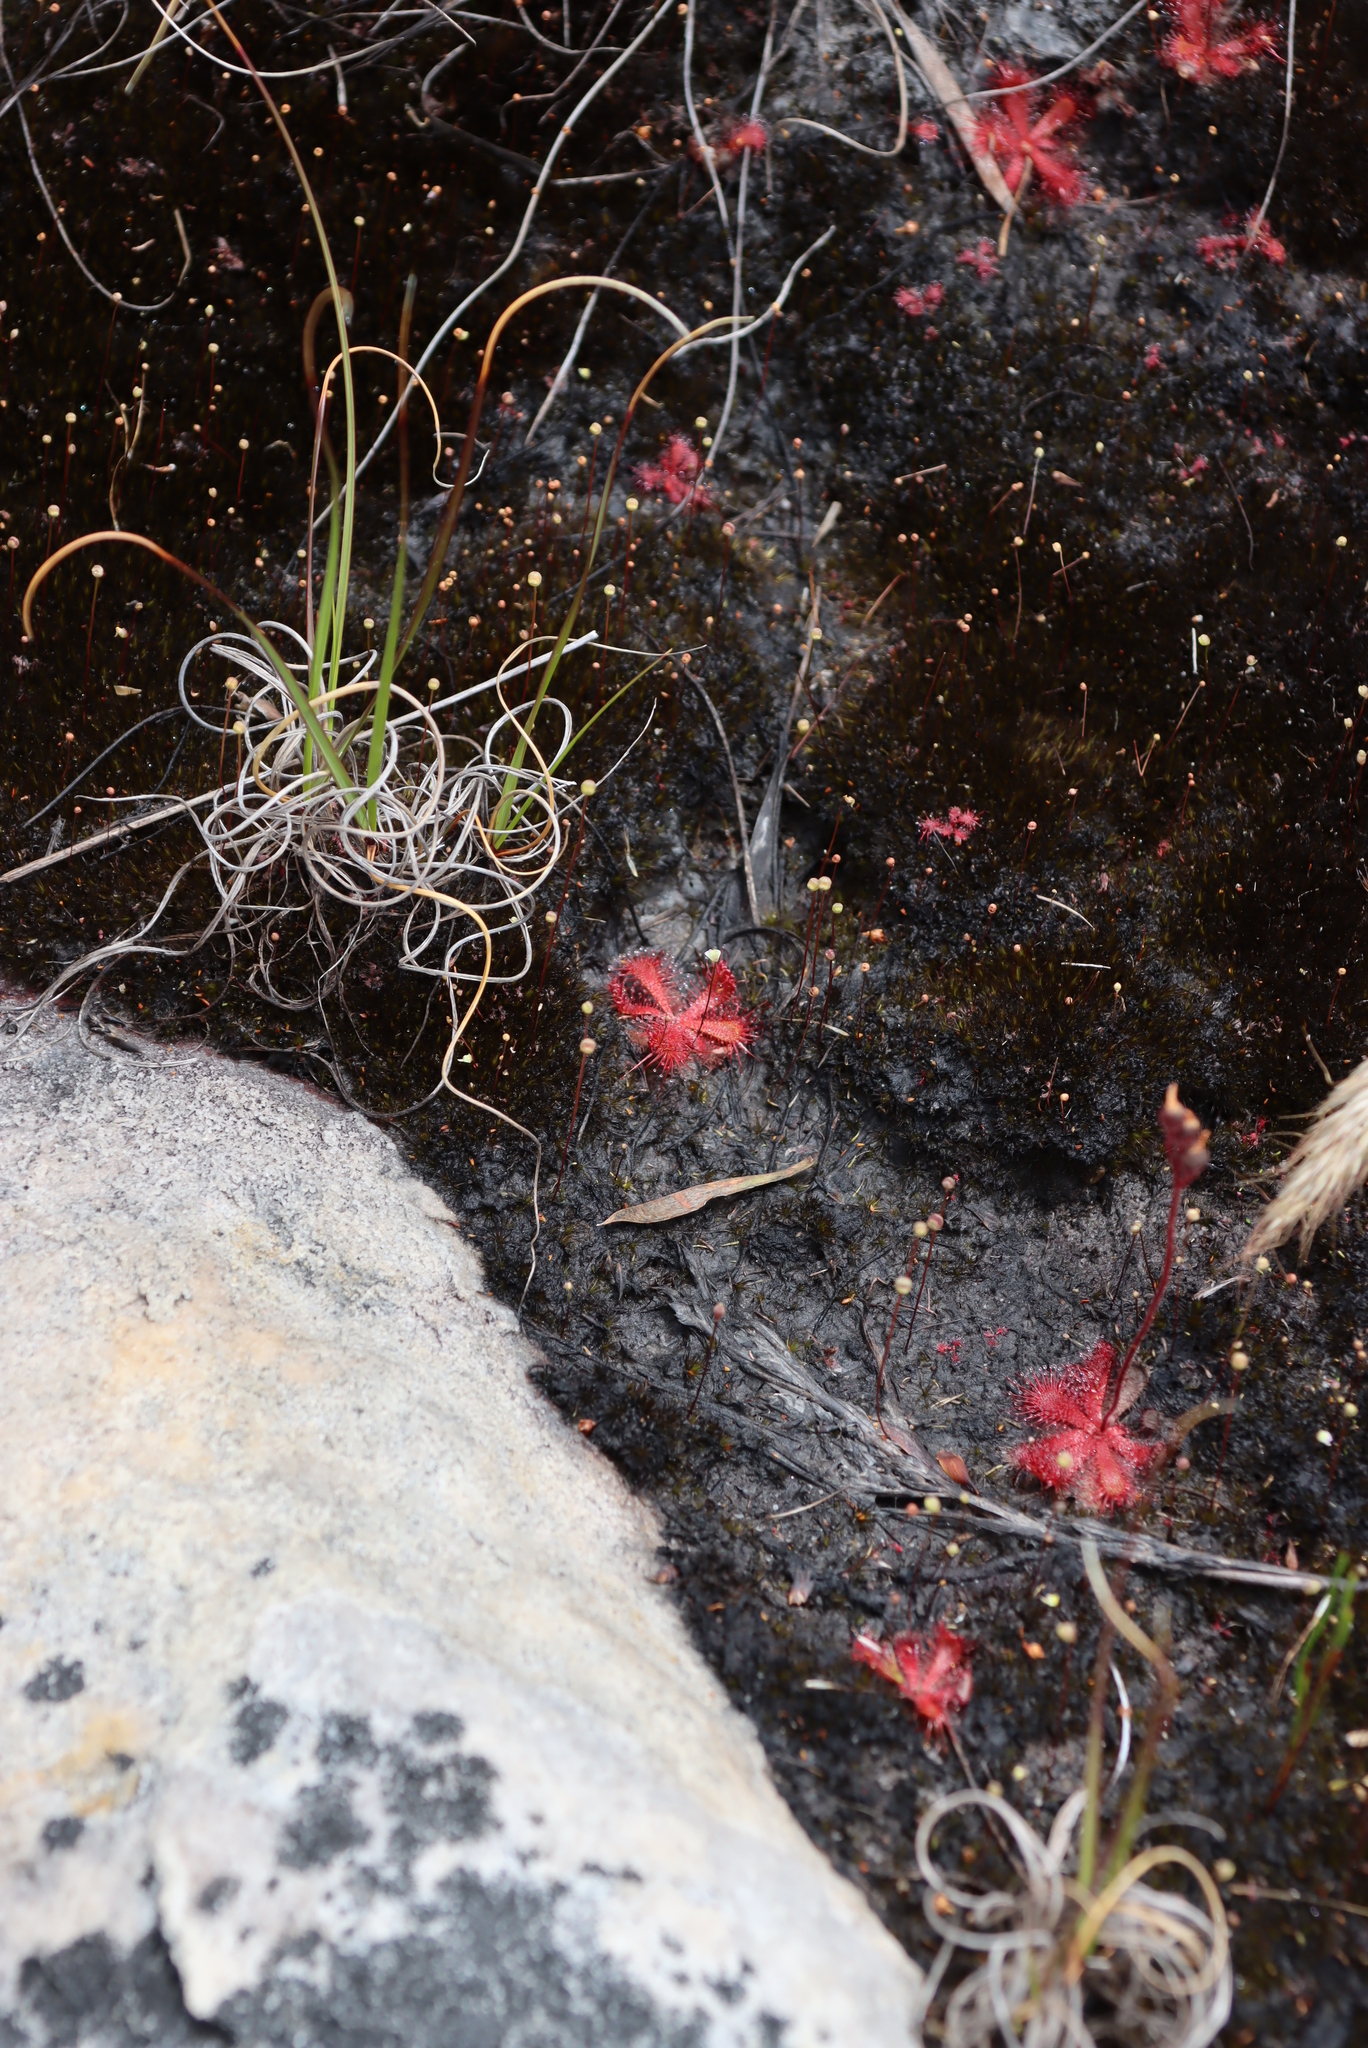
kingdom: Plantae
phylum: Tracheophyta
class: Magnoliopsida
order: Caryophyllales
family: Droseraceae
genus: Drosera
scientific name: Drosera trinervia
